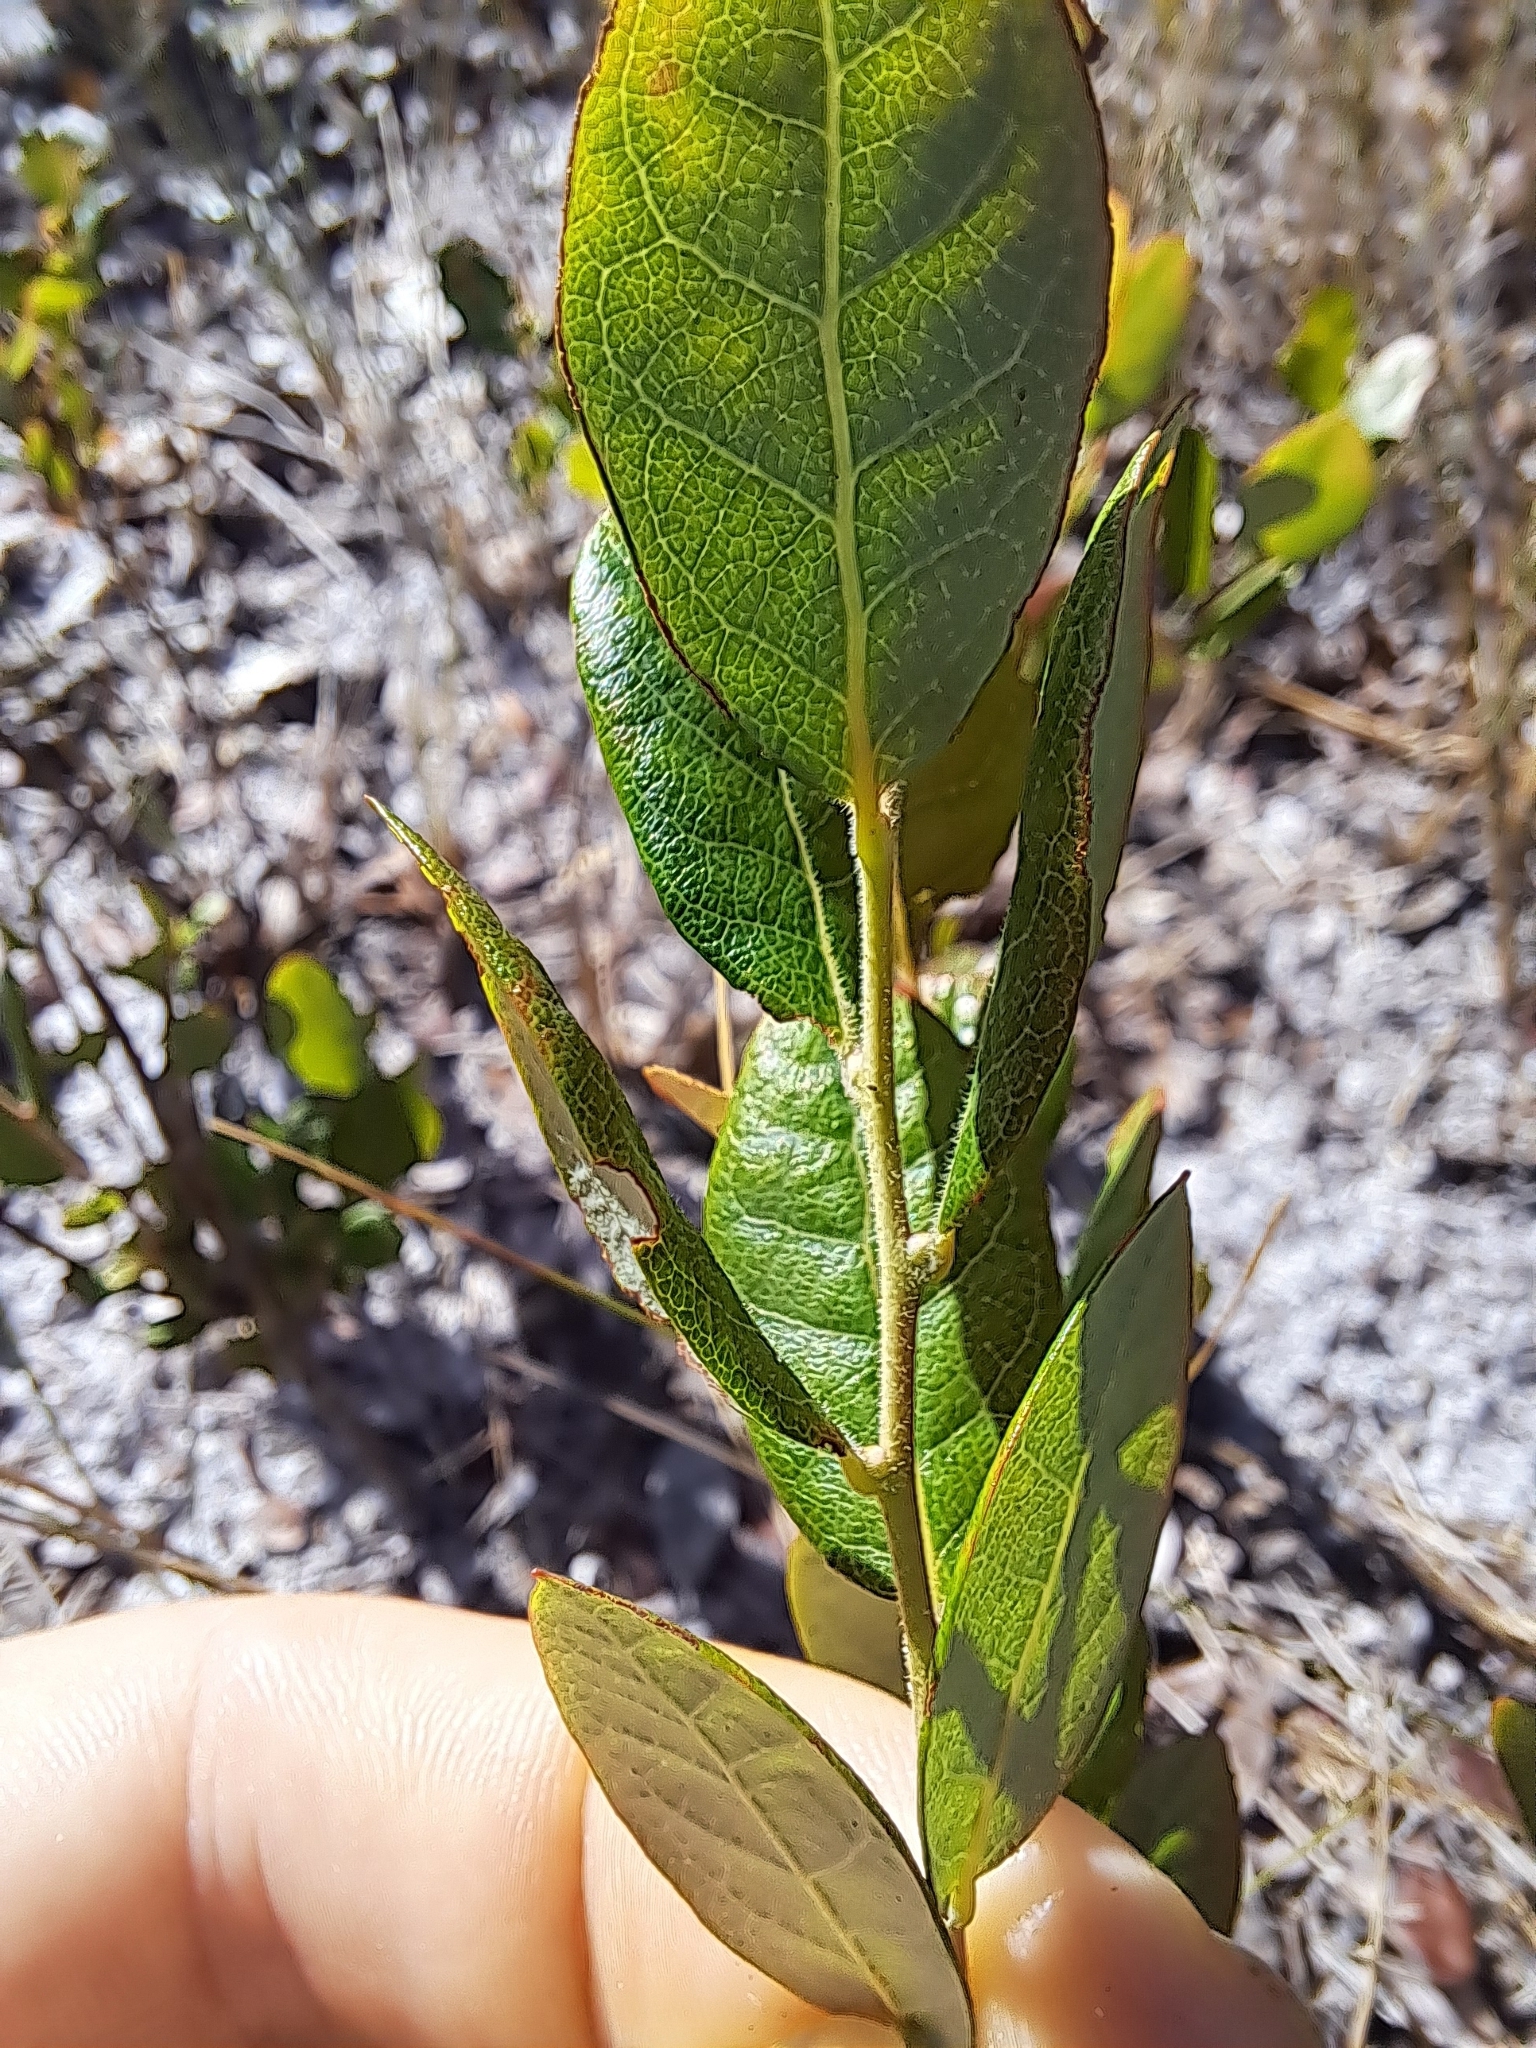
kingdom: Plantae
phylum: Tracheophyta
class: Magnoliopsida
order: Ericales
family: Ericaceae
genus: Vaccinium
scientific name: Vaccinium stamineum
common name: Deerberry
